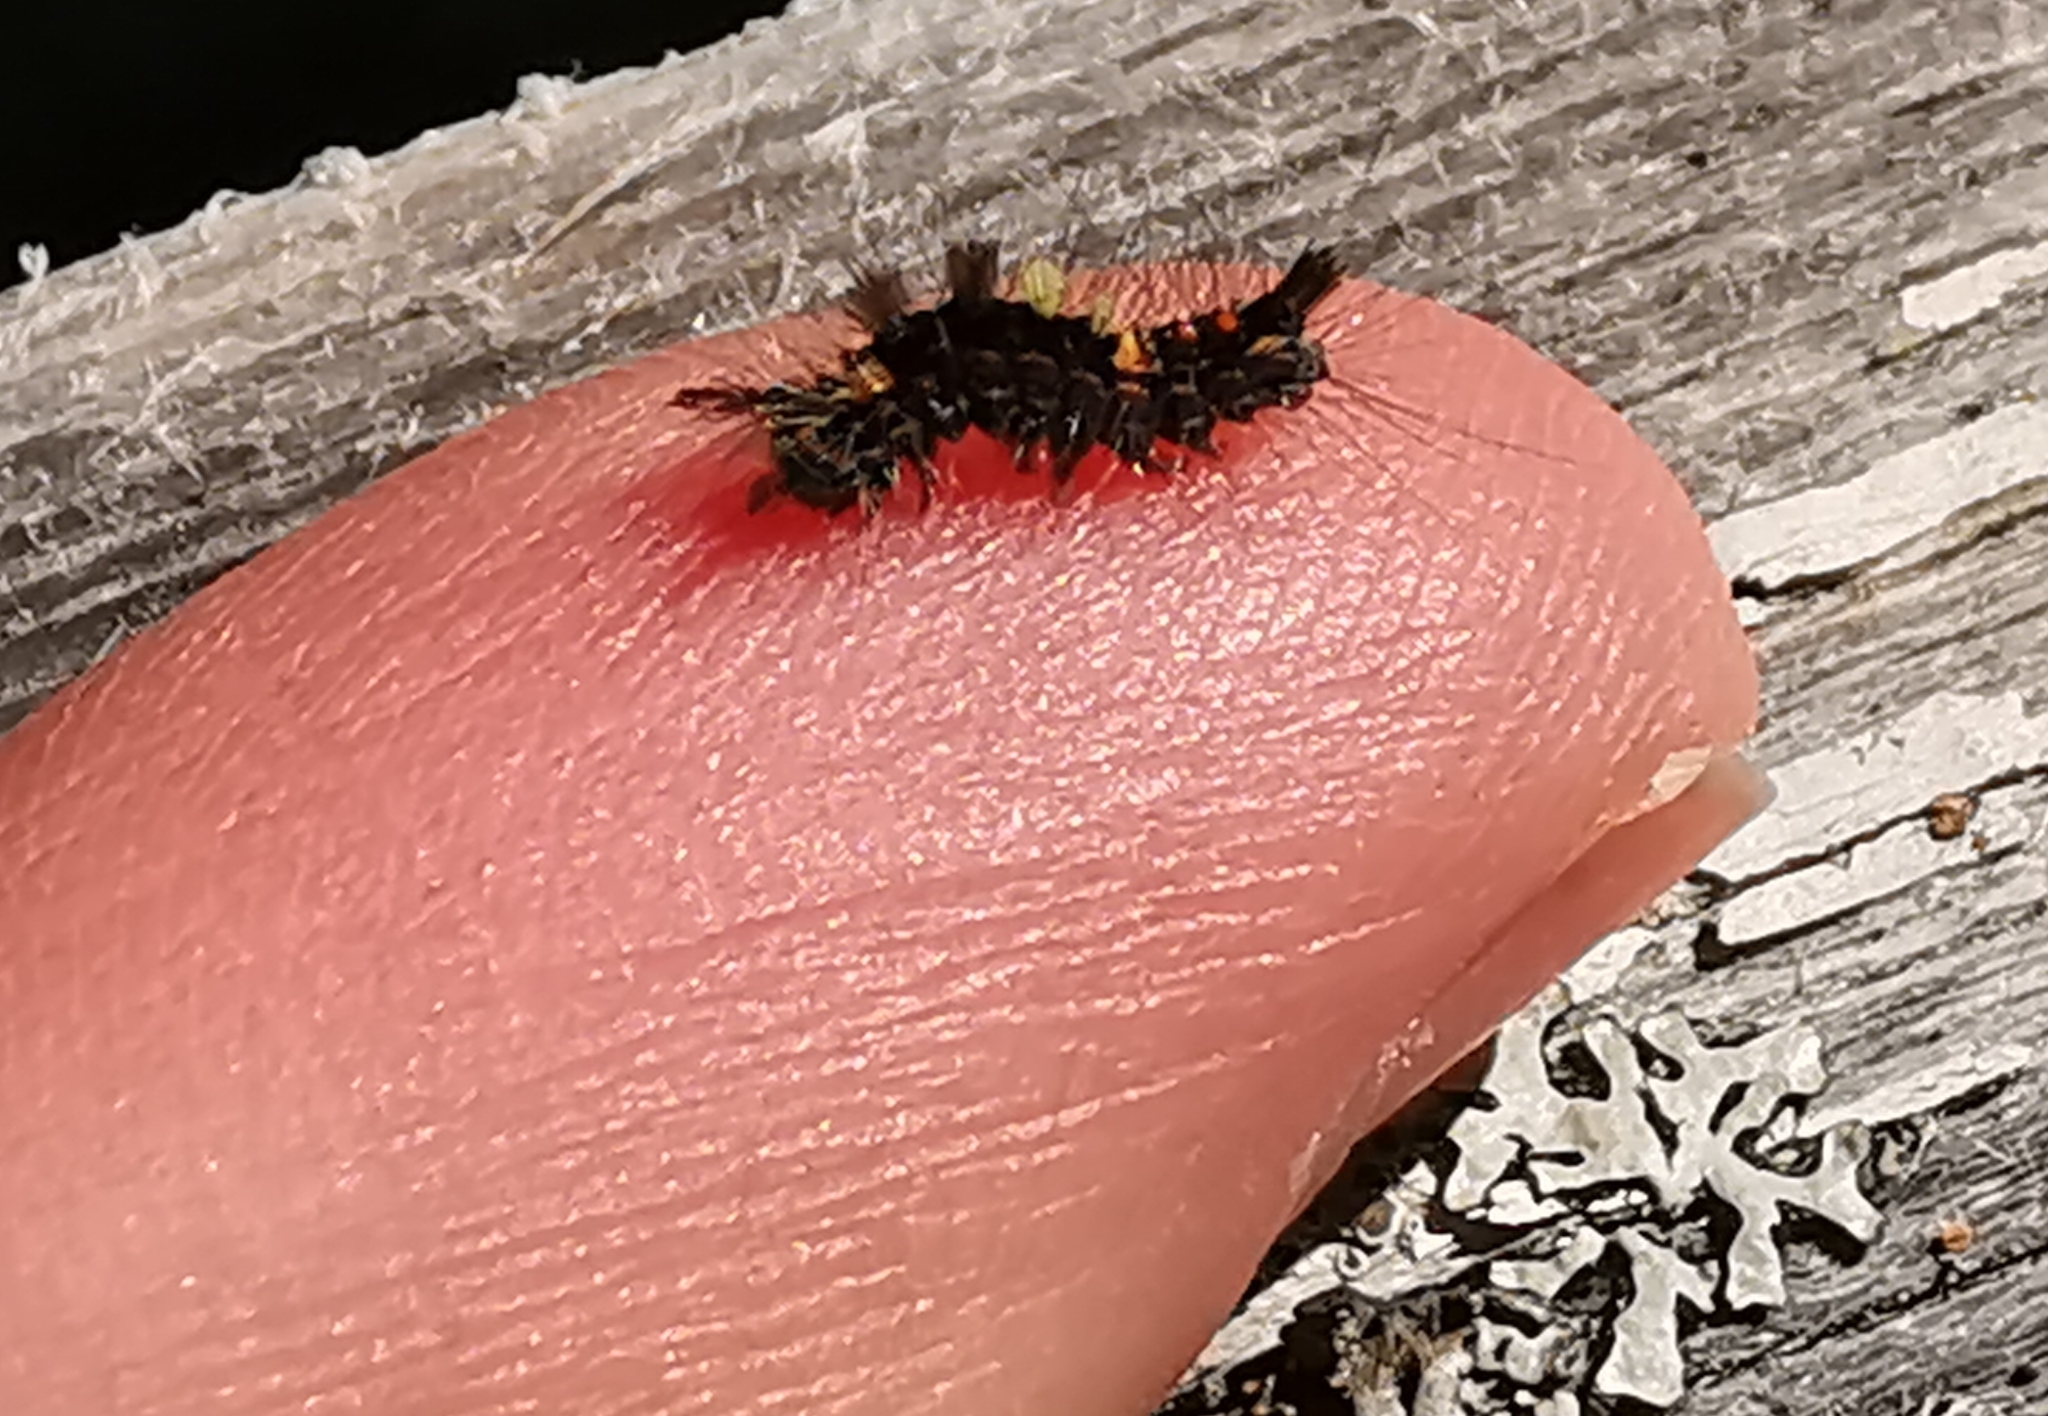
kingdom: Animalia
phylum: Arthropoda
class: Insecta
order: Lepidoptera
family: Erebidae
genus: Orgyia
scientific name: Orgyia antiqua
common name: Vapourer
